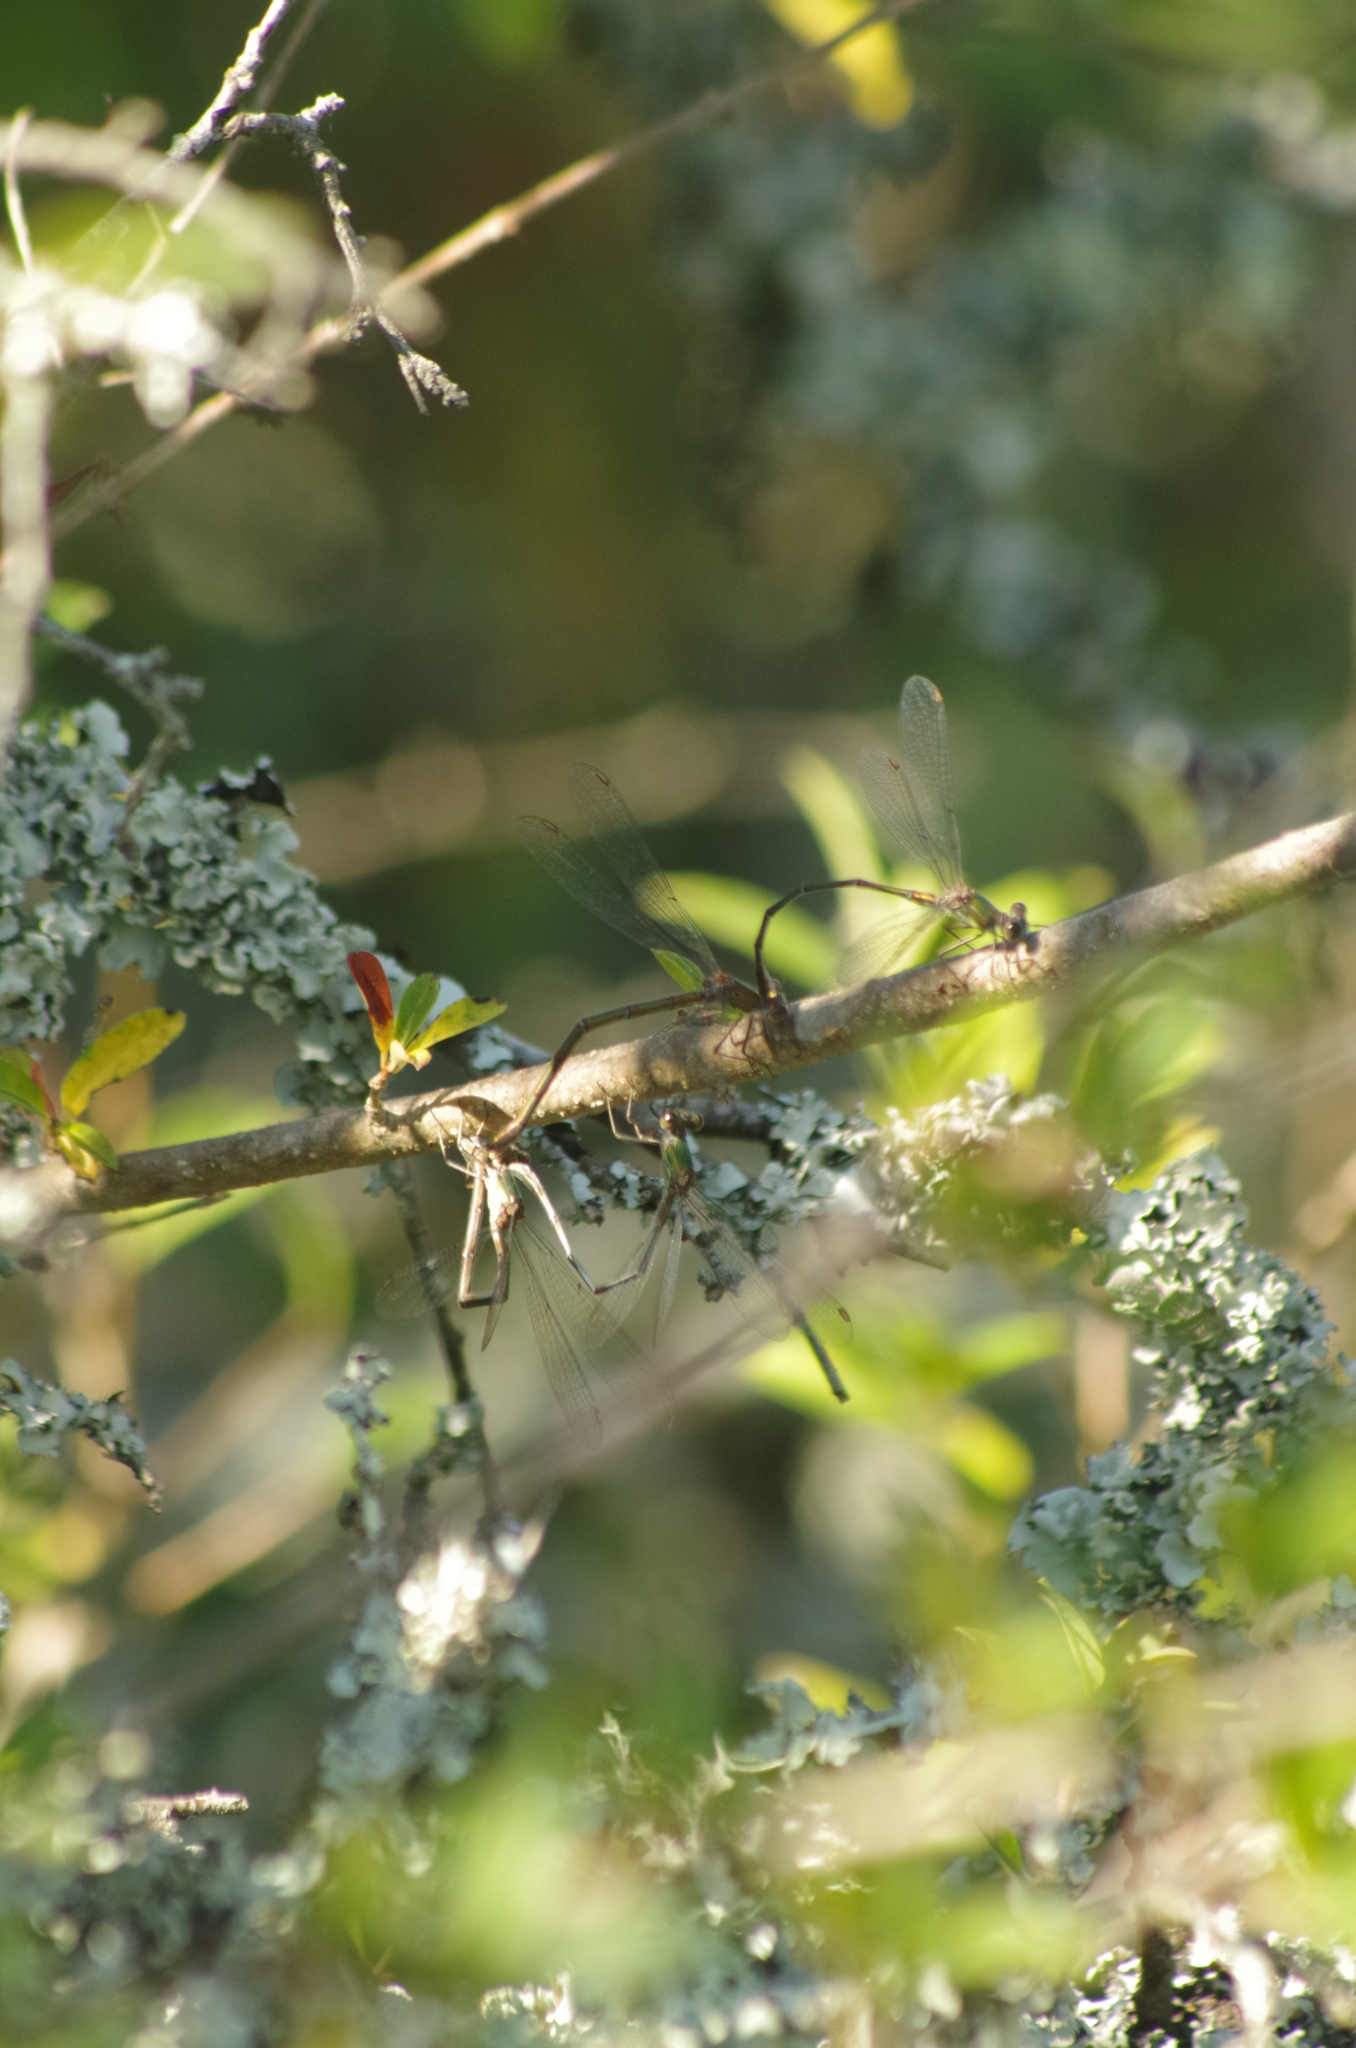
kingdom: Animalia
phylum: Arthropoda
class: Insecta
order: Odonata
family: Lestidae
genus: Chalcolestes
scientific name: Chalcolestes viridis
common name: Green emerald damselfly
